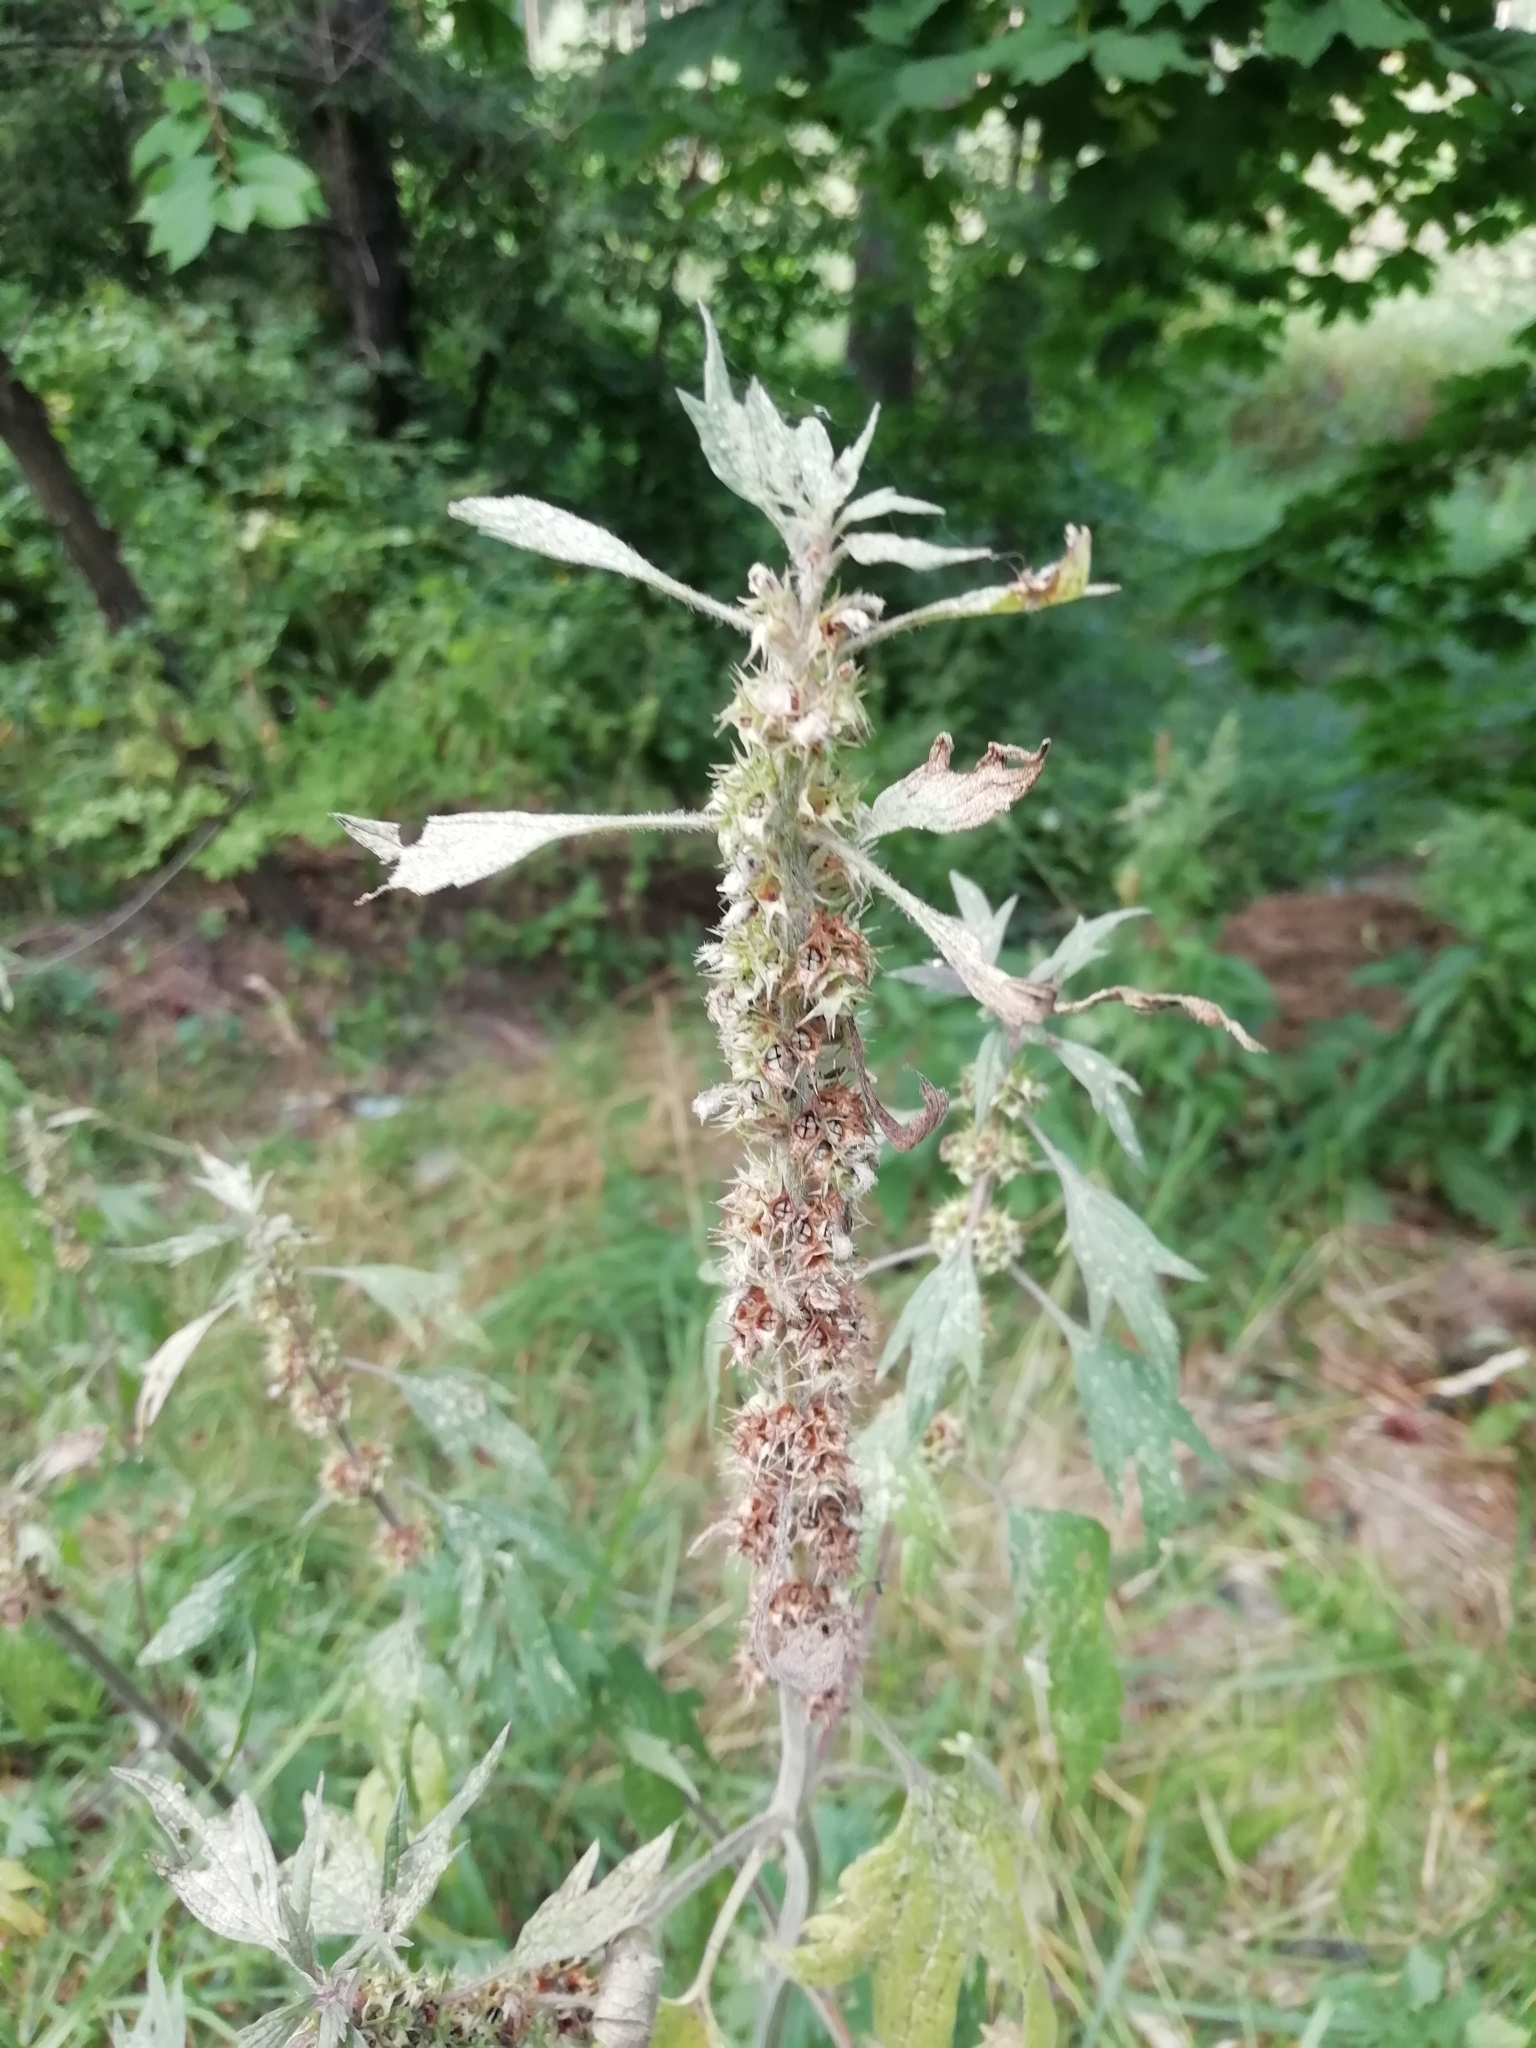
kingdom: Plantae
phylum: Tracheophyta
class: Magnoliopsida
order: Lamiales
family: Lamiaceae
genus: Leonurus
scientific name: Leonurus quinquelobatus
